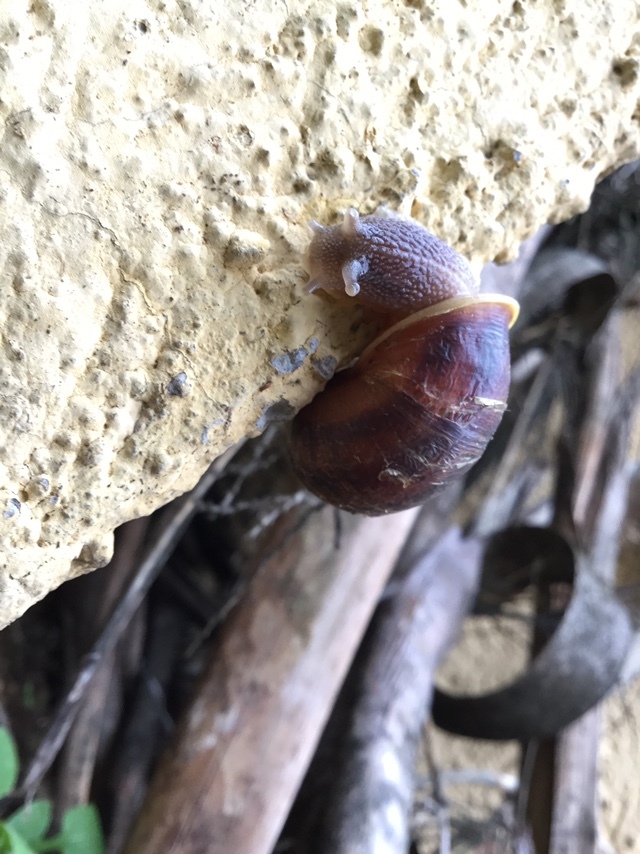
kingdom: Animalia
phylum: Mollusca
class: Gastropoda
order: Stylommatophora
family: Helicidae
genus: Cornu
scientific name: Cornu aspersum
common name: Brown garden snail
